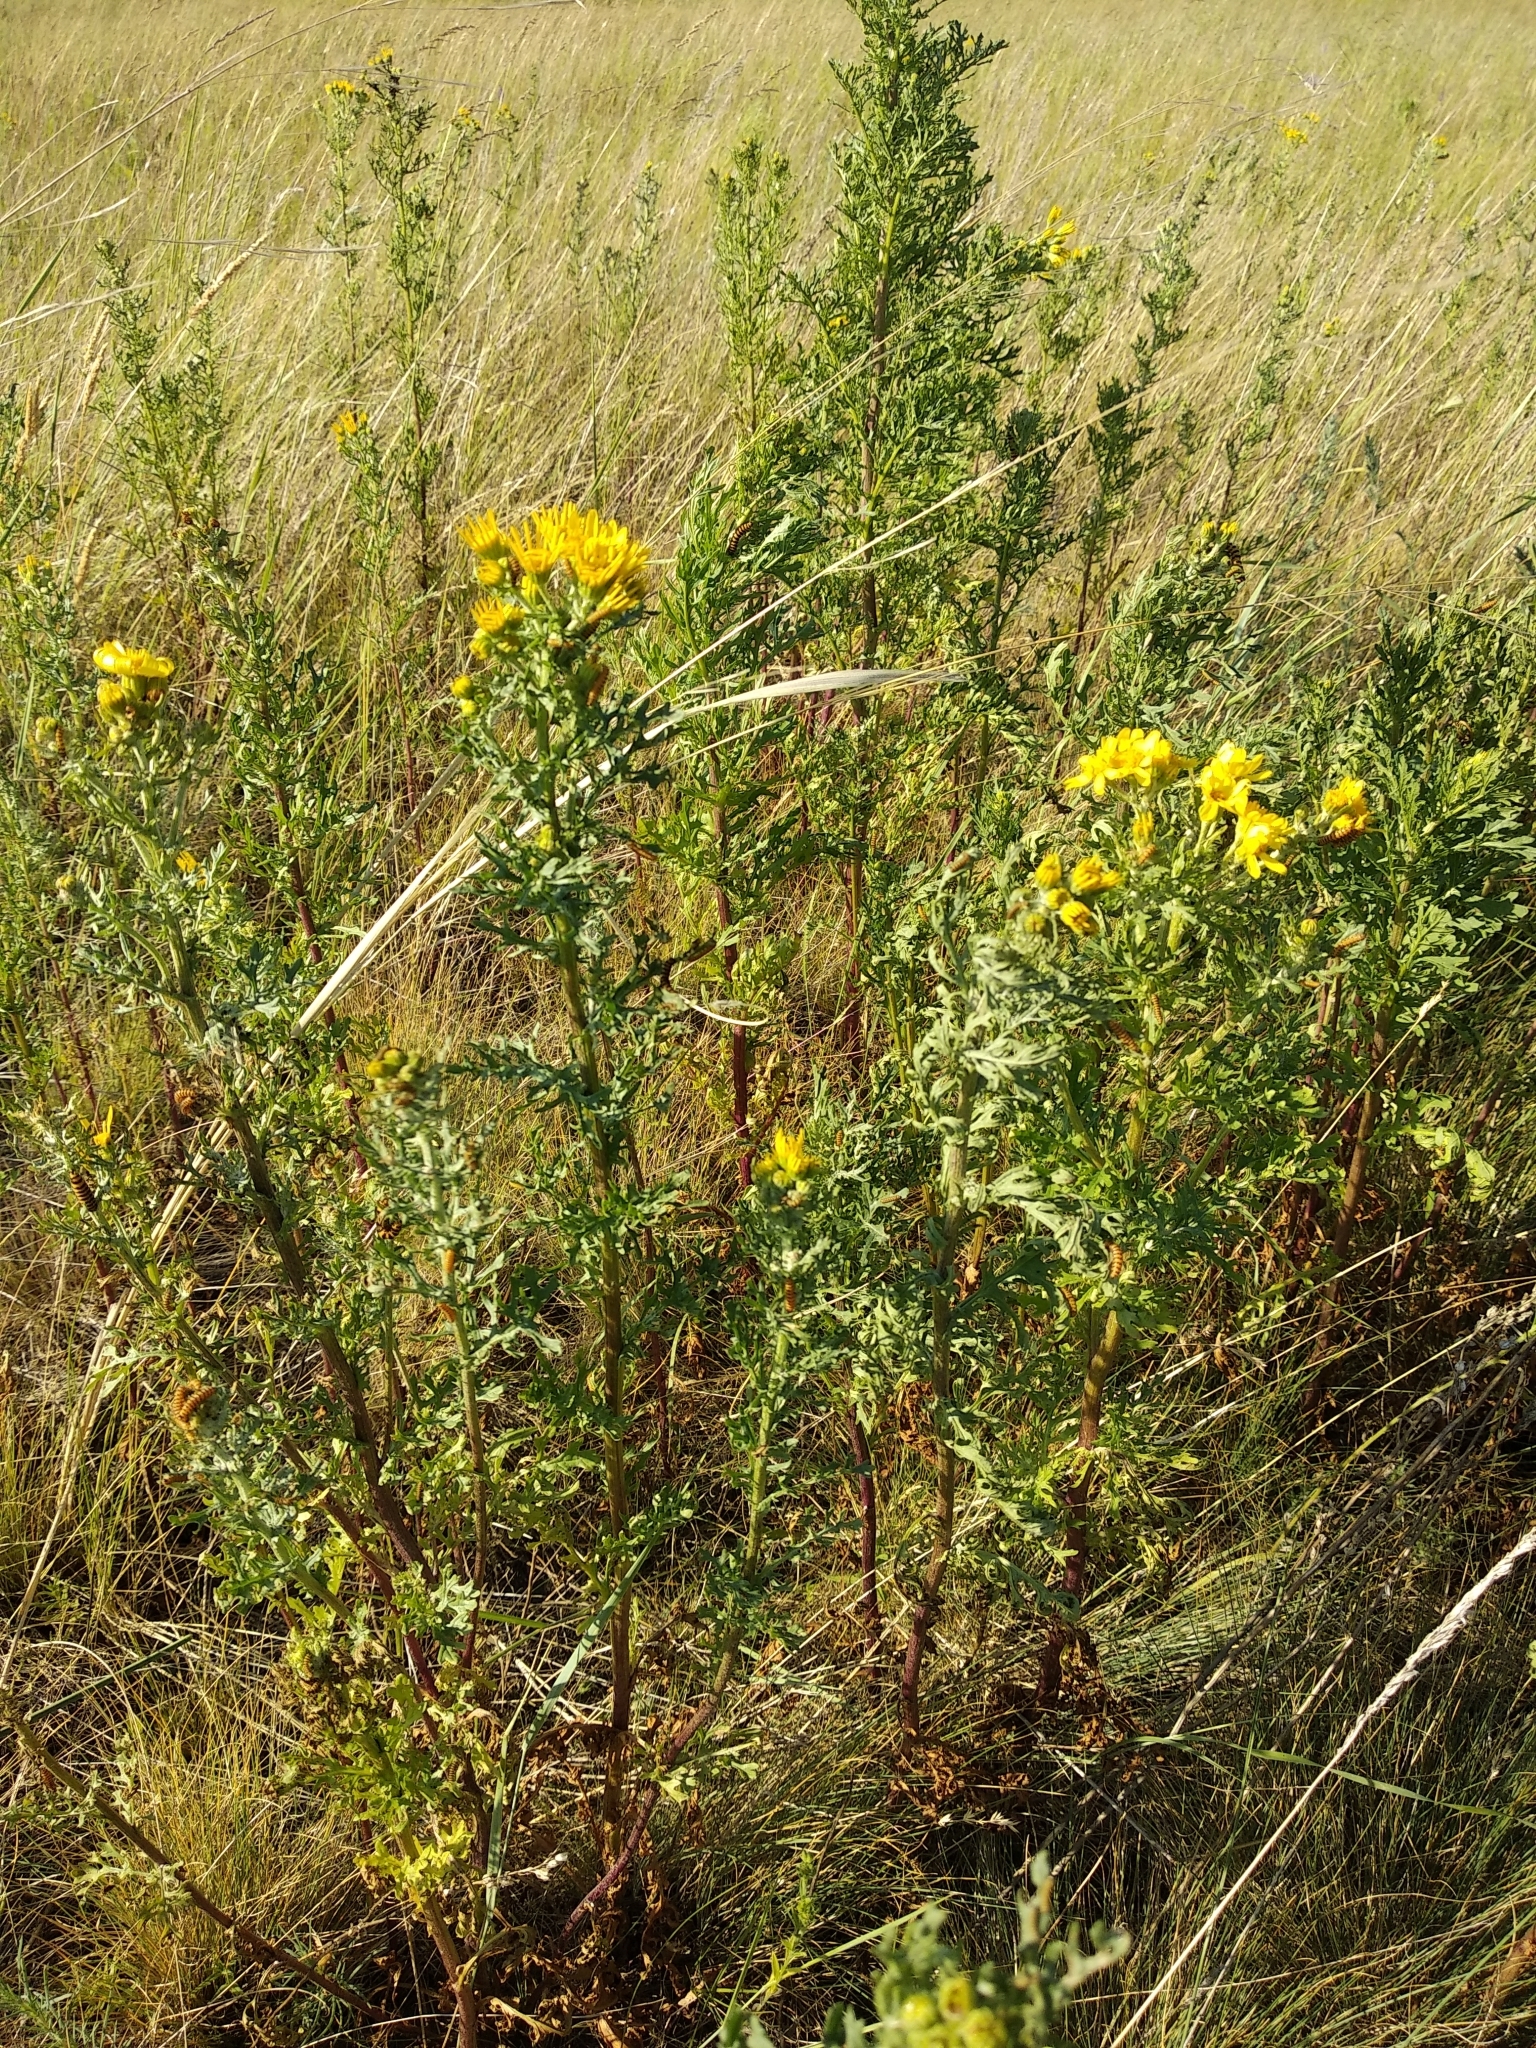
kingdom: Plantae
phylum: Tracheophyta
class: Magnoliopsida
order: Asterales
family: Asteraceae
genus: Jacobaea
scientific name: Jacobaea erucifolia
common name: Hoary ragwort
